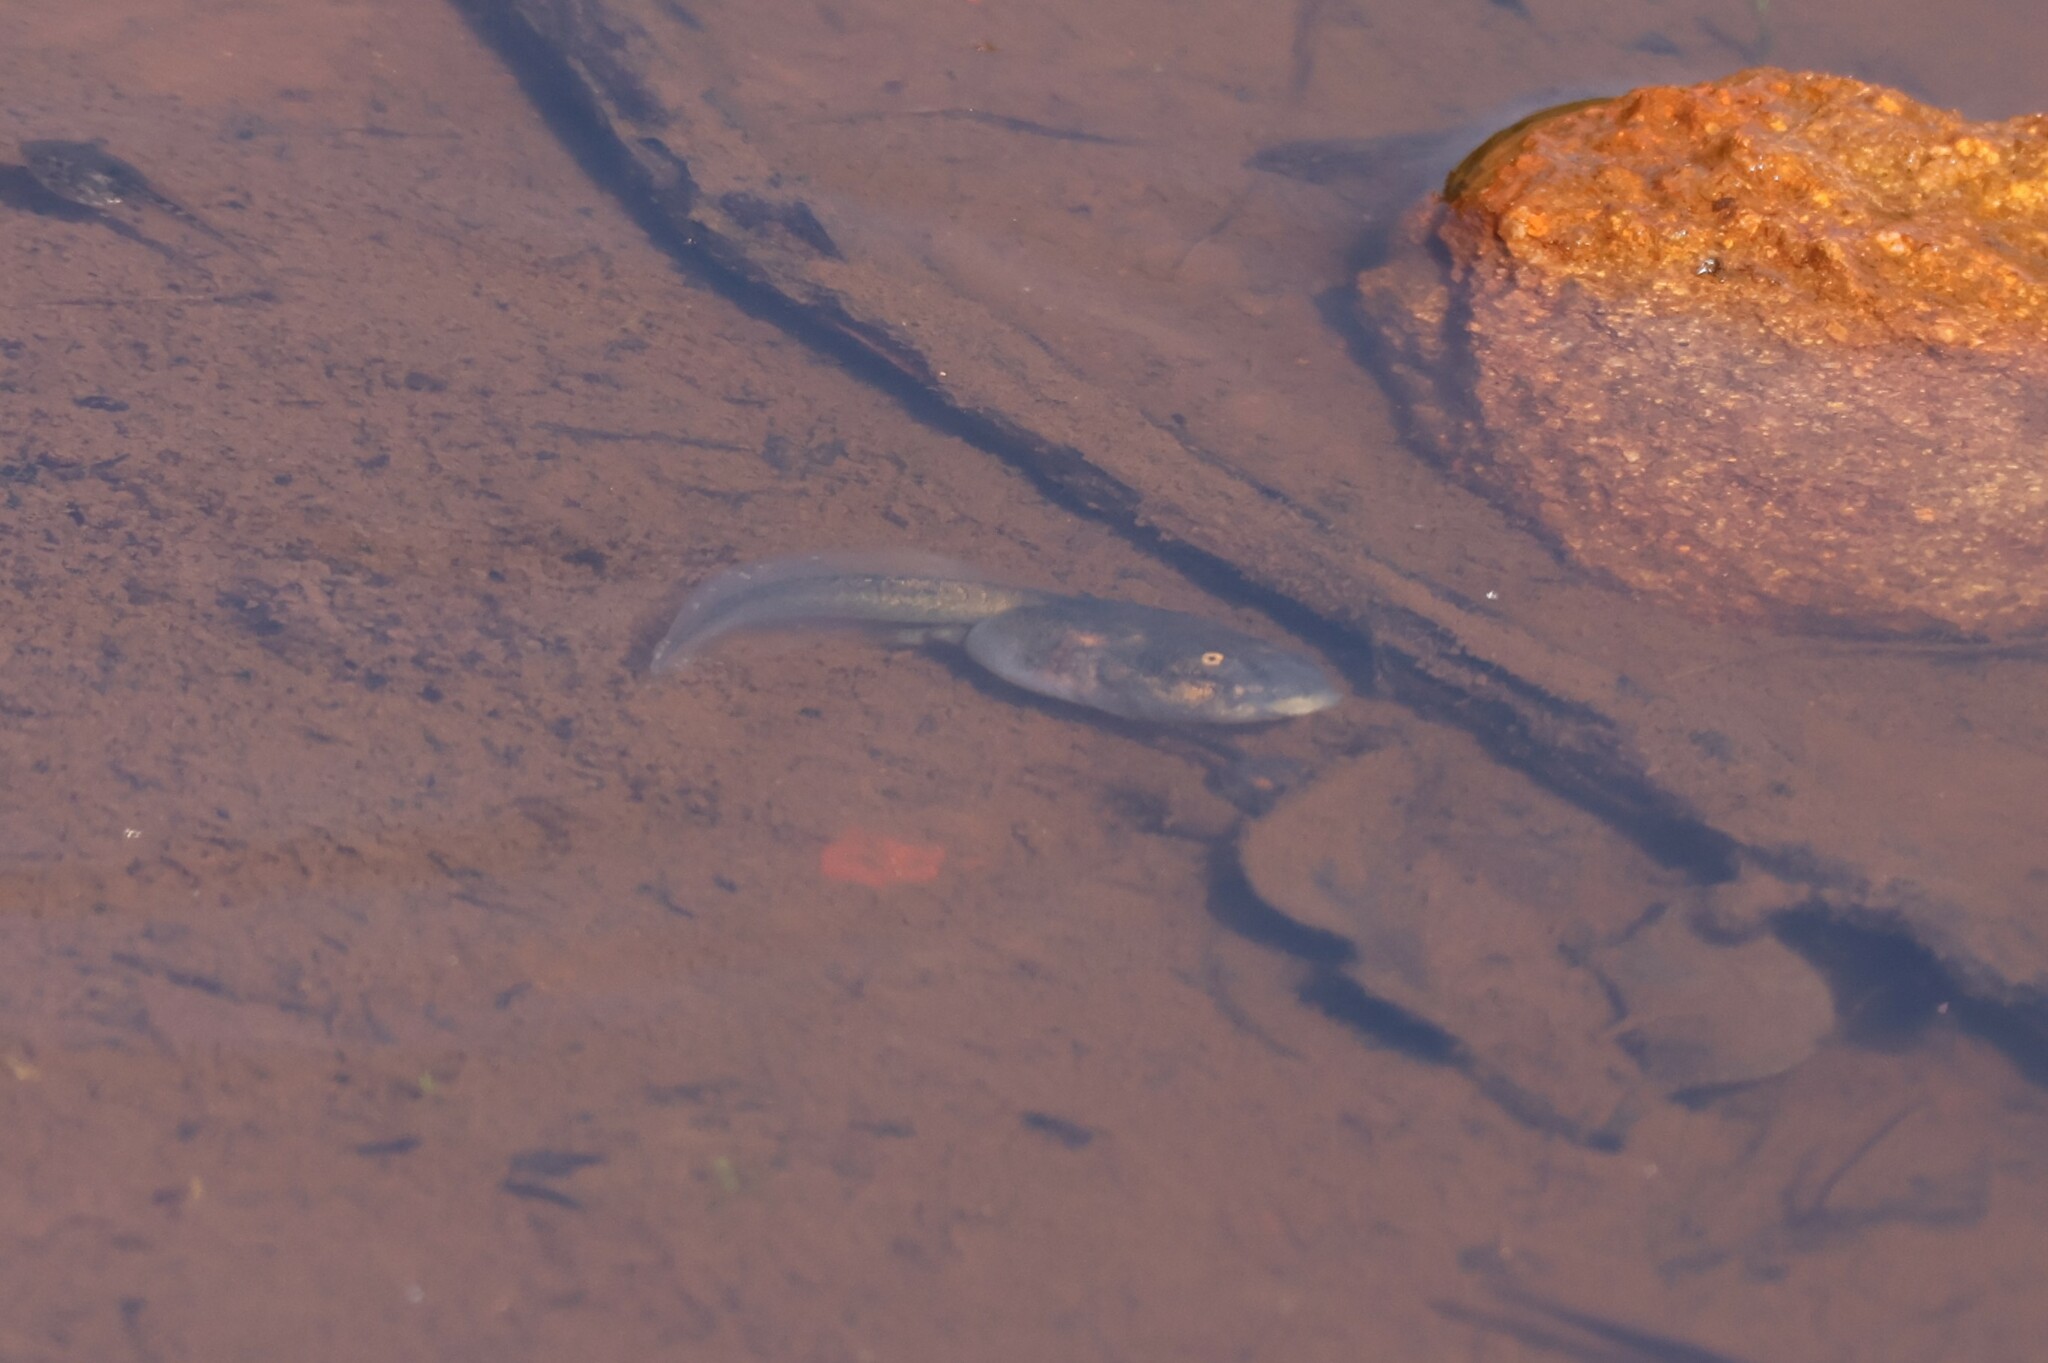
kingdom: Animalia
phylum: Chordata
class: Amphibia
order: Anura
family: Scaphiopodidae
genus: Spea
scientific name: Spea hammondii
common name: Western spadefoot toad
